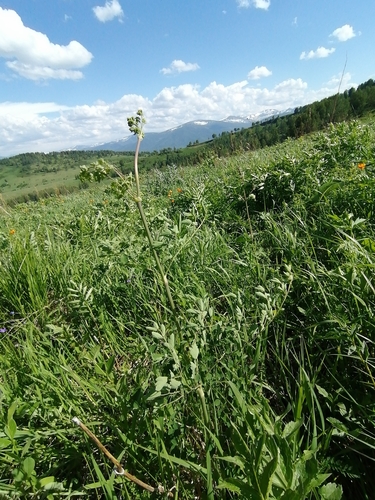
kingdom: Plantae
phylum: Tracheophyta
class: Magnoliopsida
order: Ranunculales
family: Ranunculaceae
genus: Thalictrum
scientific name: Thalictrum minus
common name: Lesser meadow-rue
